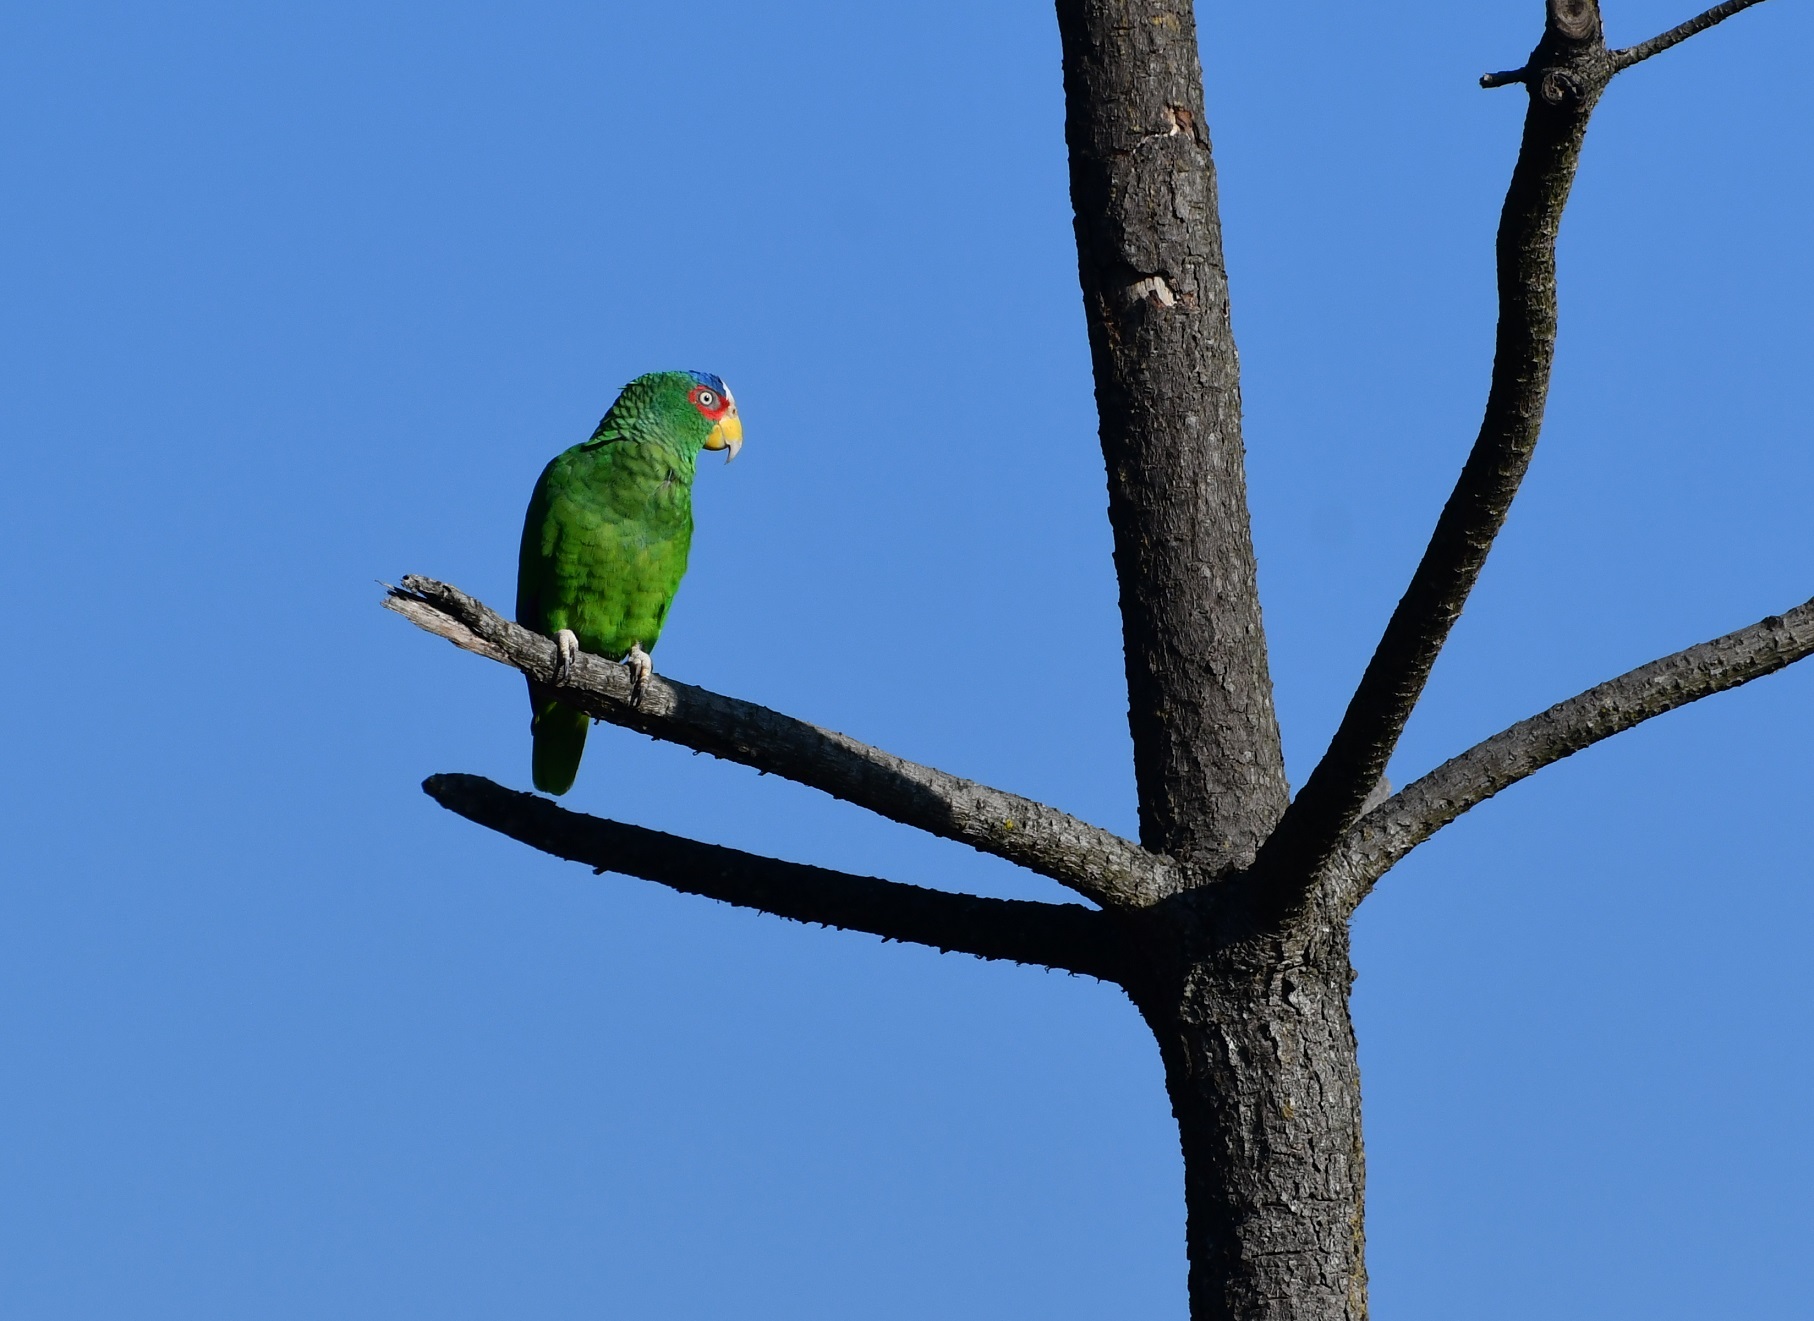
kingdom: Animalia
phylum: Chordata
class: Aves
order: Psittaciformes
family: Psittacidae
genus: Amazona
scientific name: Amazona albifrons
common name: White-fronted amazon
